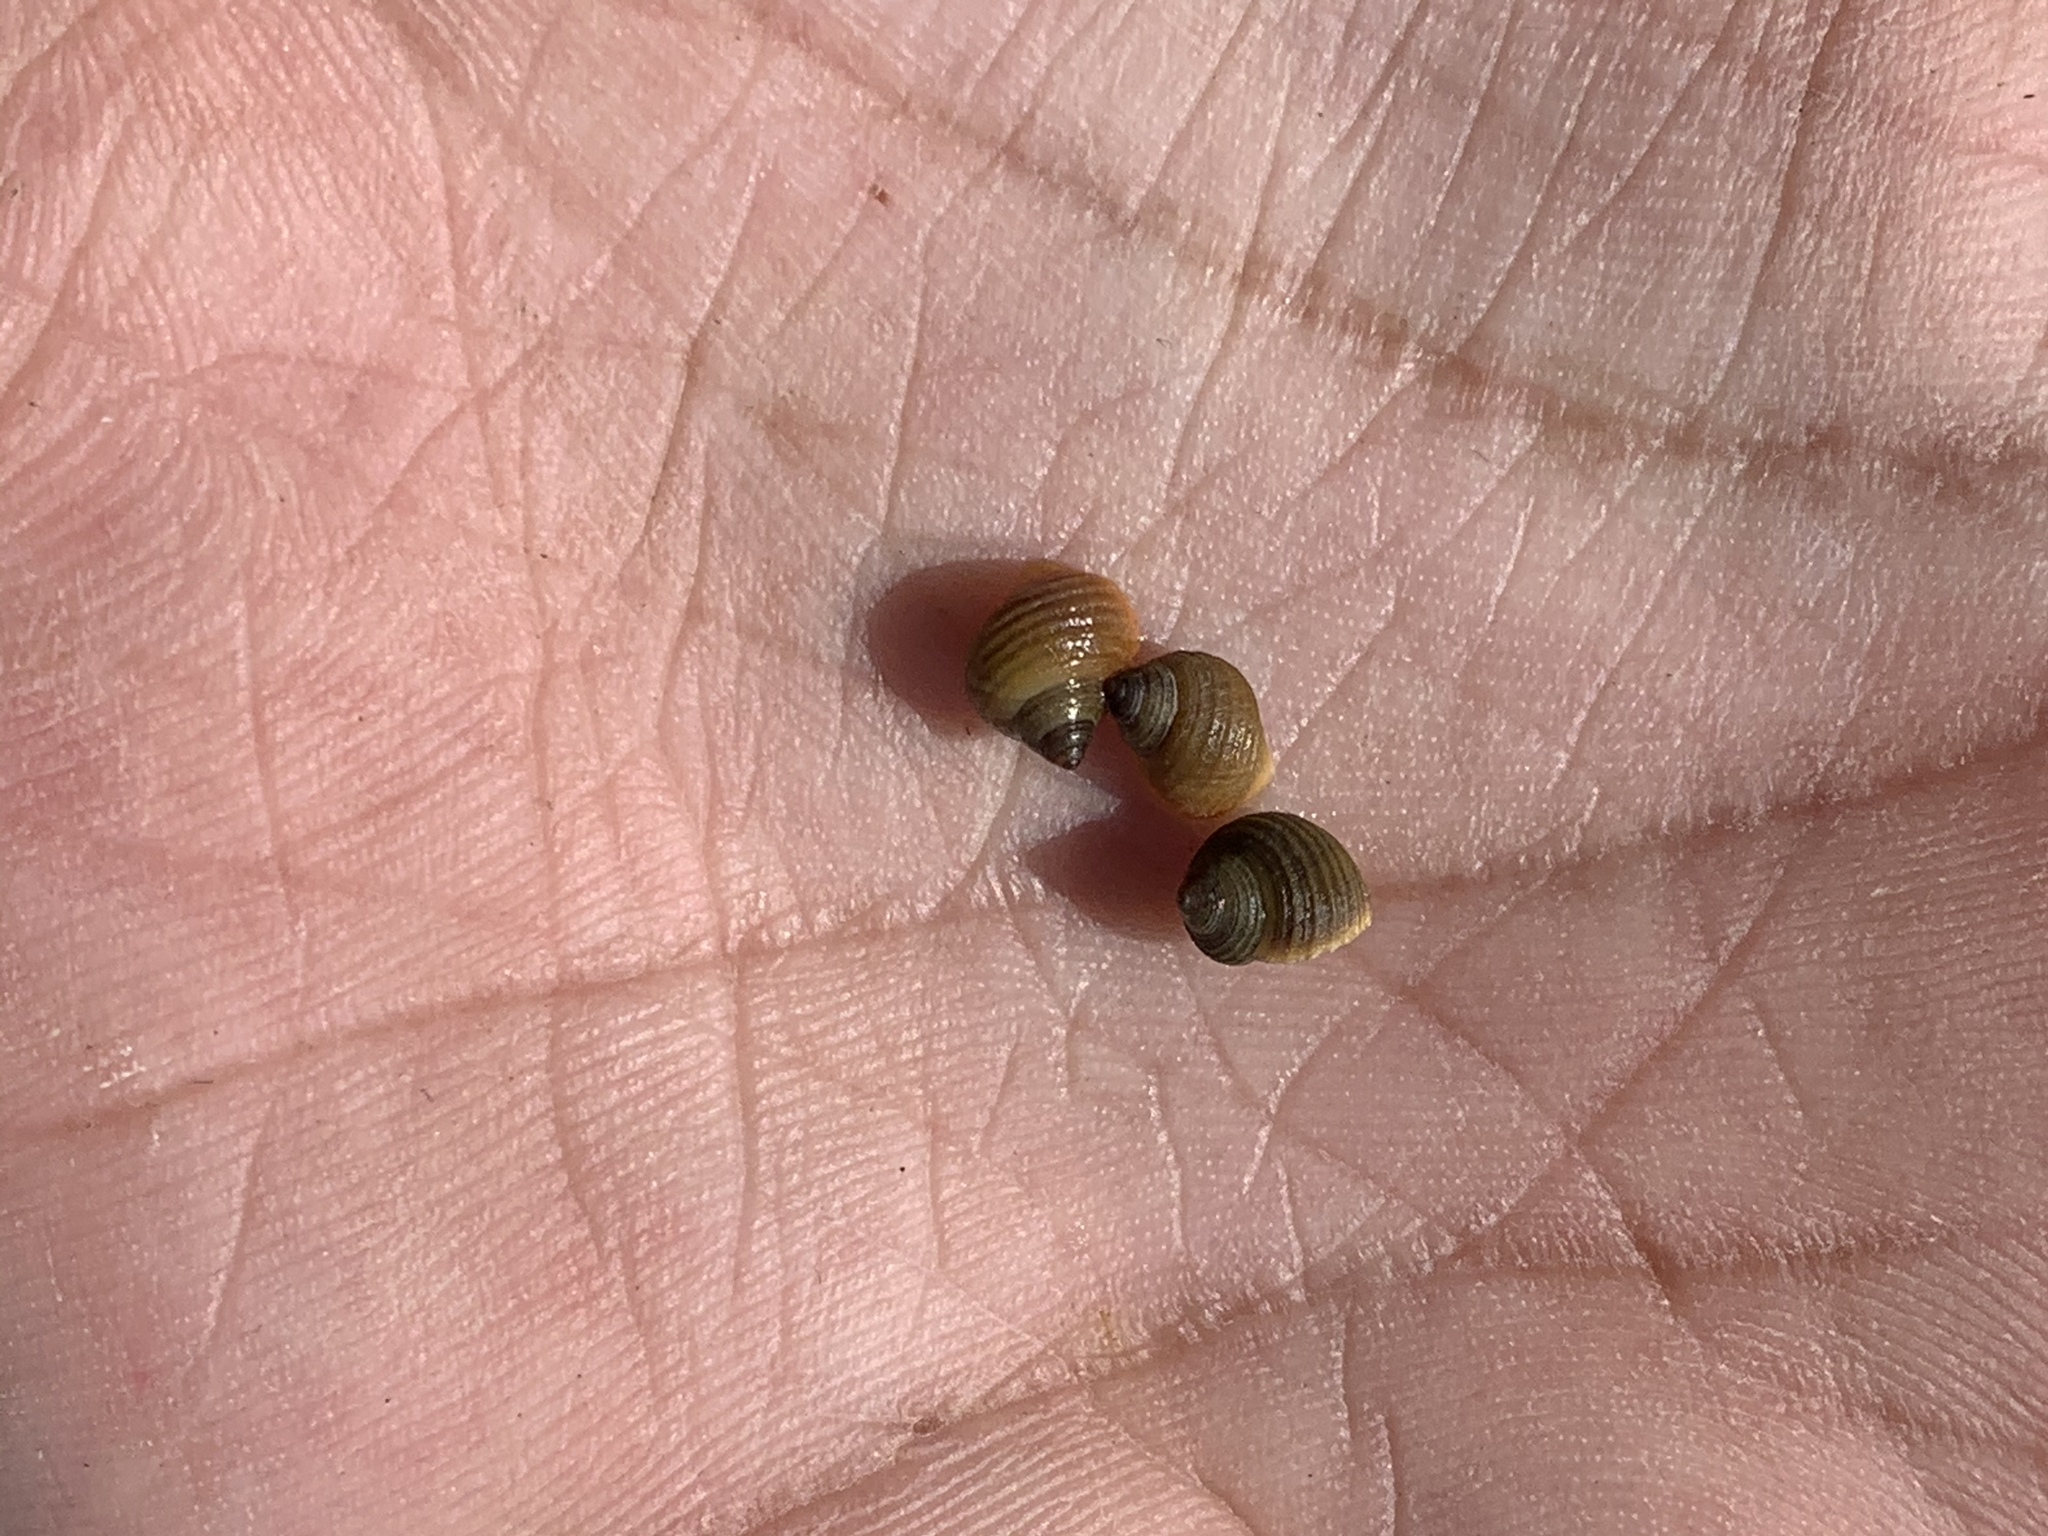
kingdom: Animalia
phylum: Mollusca
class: Gastropoda
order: Littorinimorpha
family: Littorinidae
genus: Littorina
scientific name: Littorina saxatilis
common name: Black-lined periwinkle
